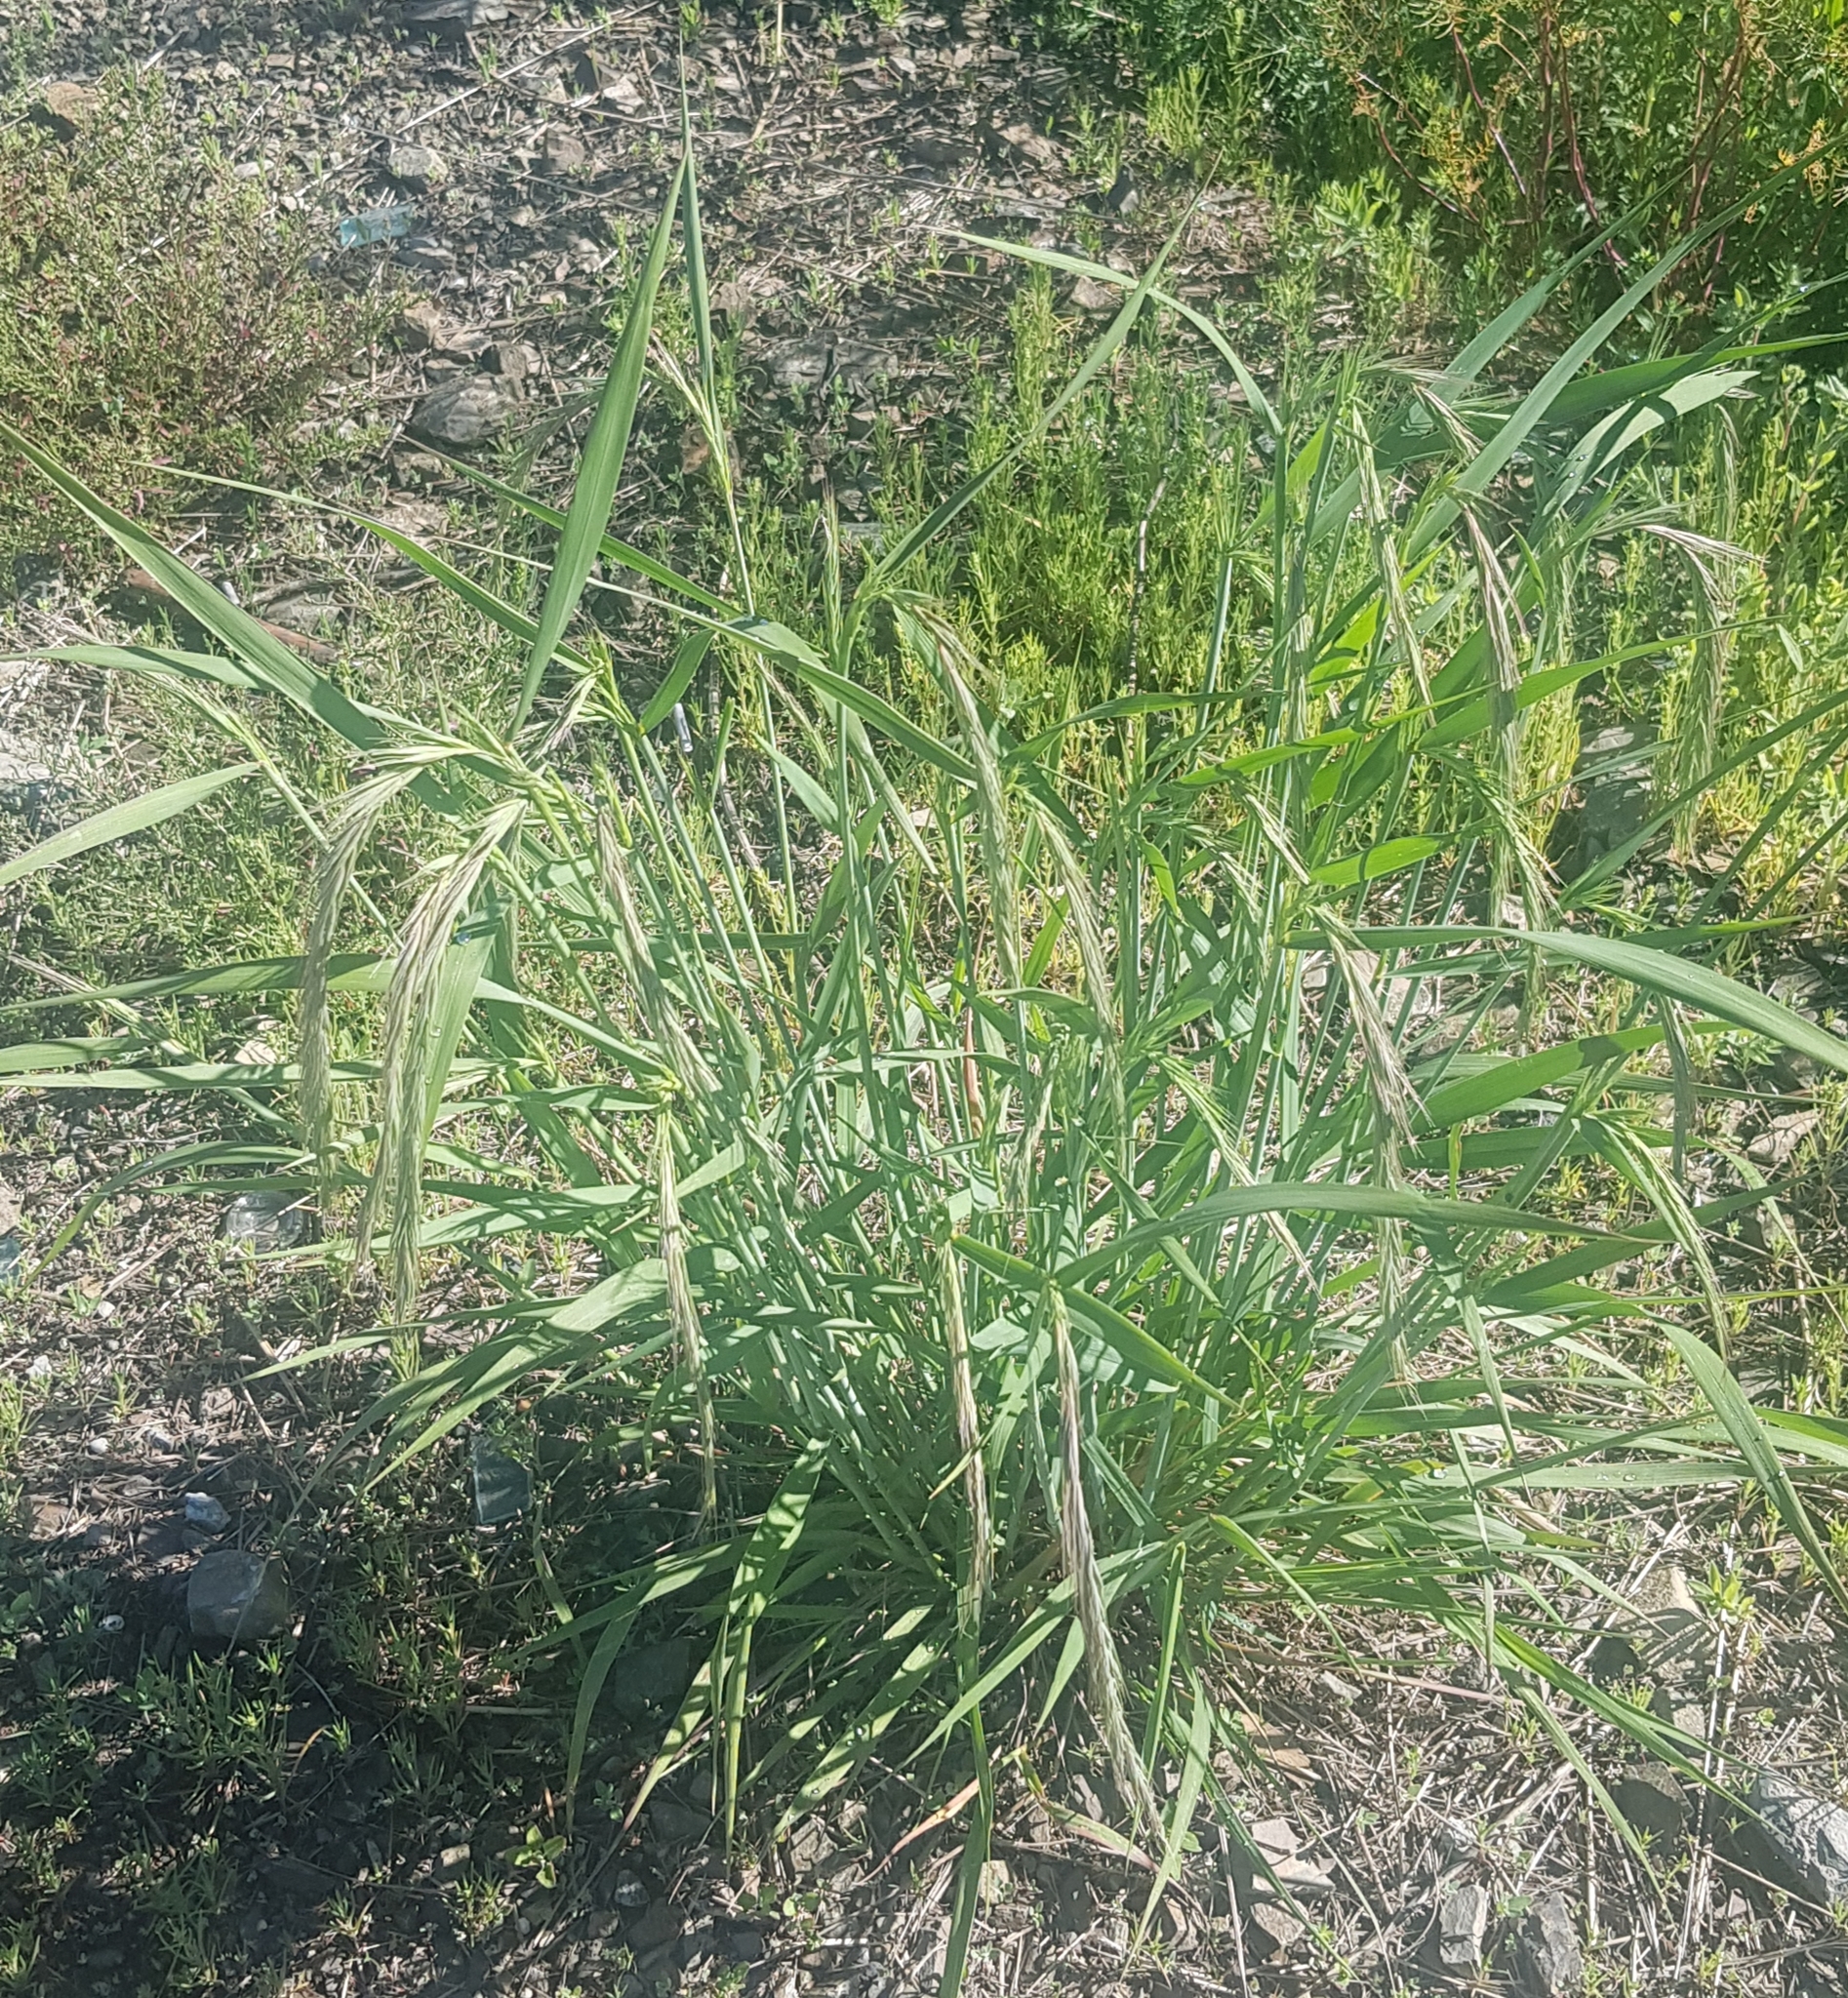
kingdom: Plantae
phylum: Tracheophyta
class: Liliopsida
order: Poales
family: Poaceae
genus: Elymus
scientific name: Elymus sibiricus
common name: Siberian wildrye
